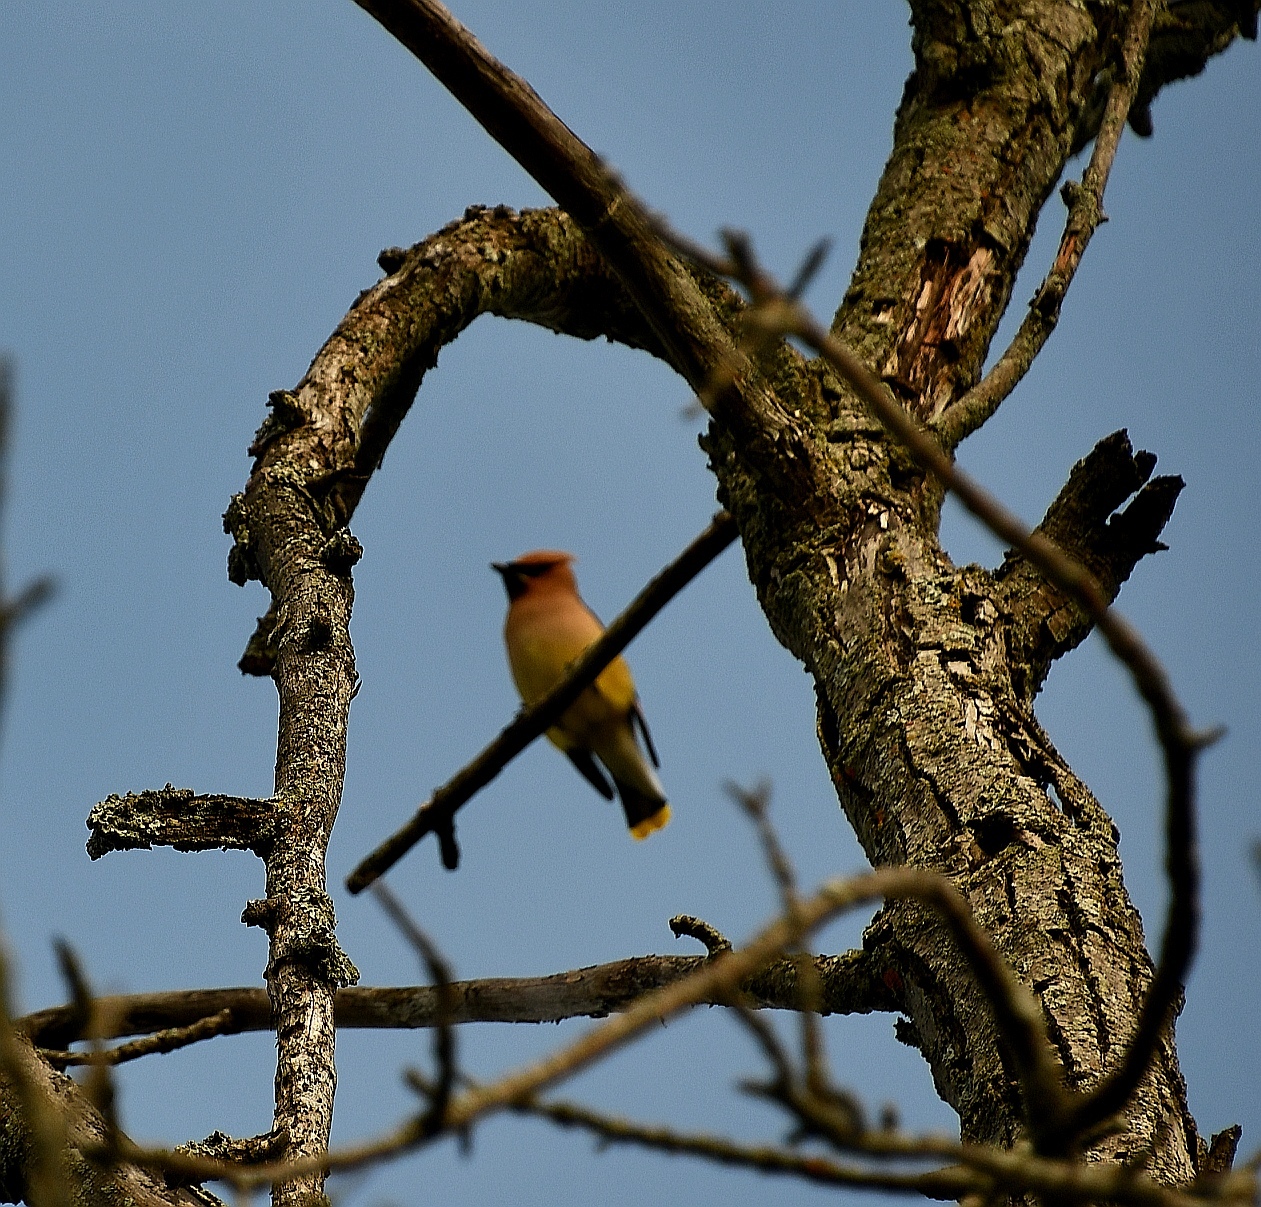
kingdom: Animalia
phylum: Chordata
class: Aves
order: Passeriformes
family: Bombycillidae
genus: Bombycilla
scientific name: Bombycilla cedrorum
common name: Cedar waxwing
